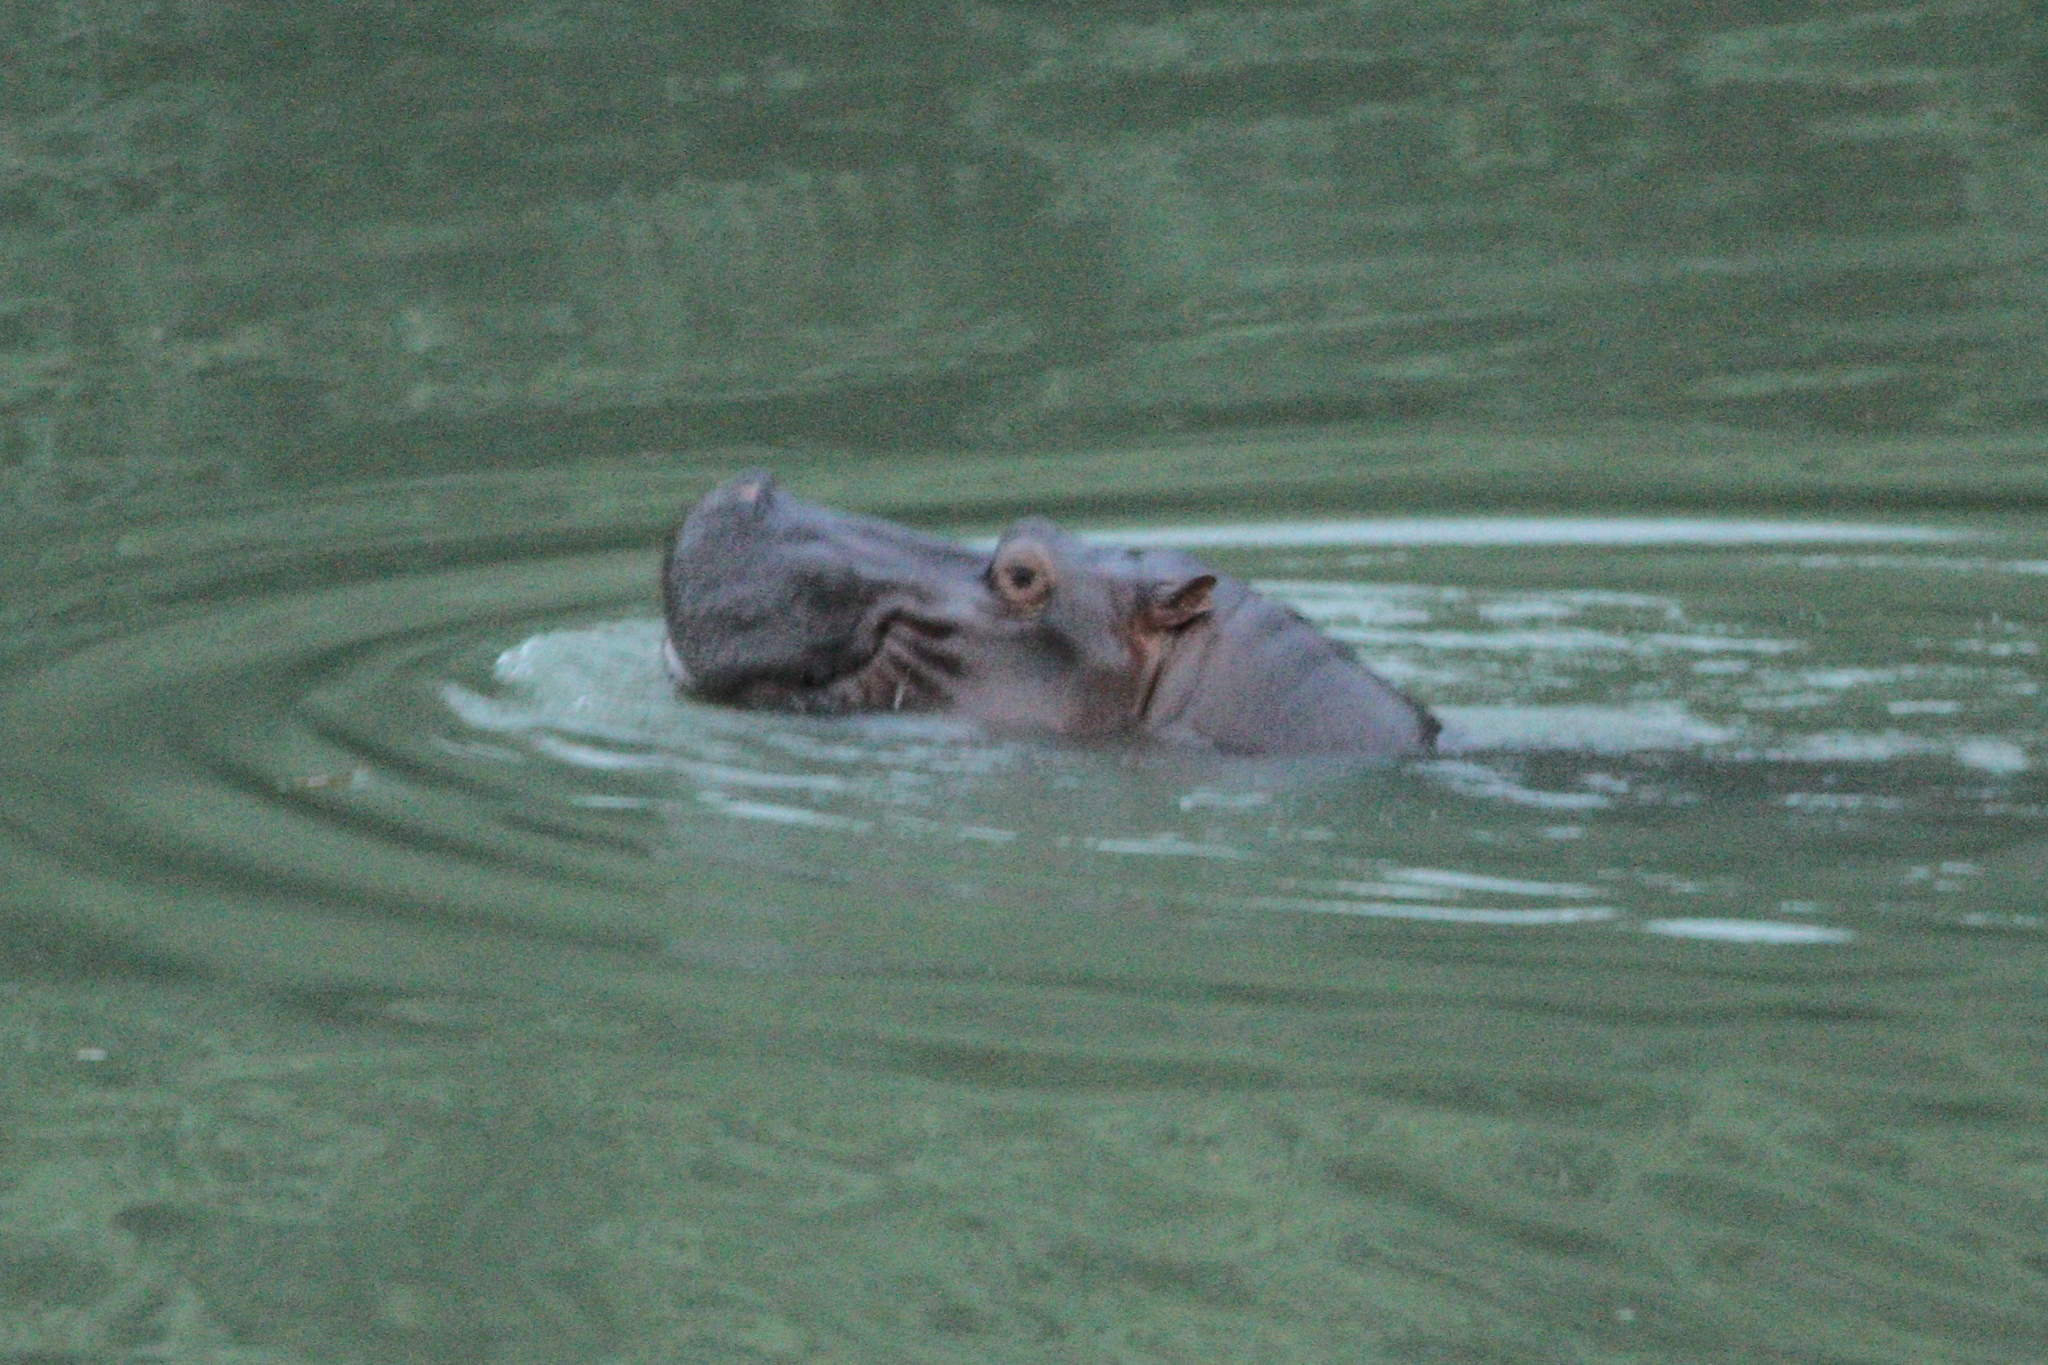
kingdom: Animalia
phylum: Chordata
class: Mammalia
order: Artiodactyla
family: Hippopotamidae
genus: Hippopotamus
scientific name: Hippopotamus amphibius
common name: Common hippopotamus
